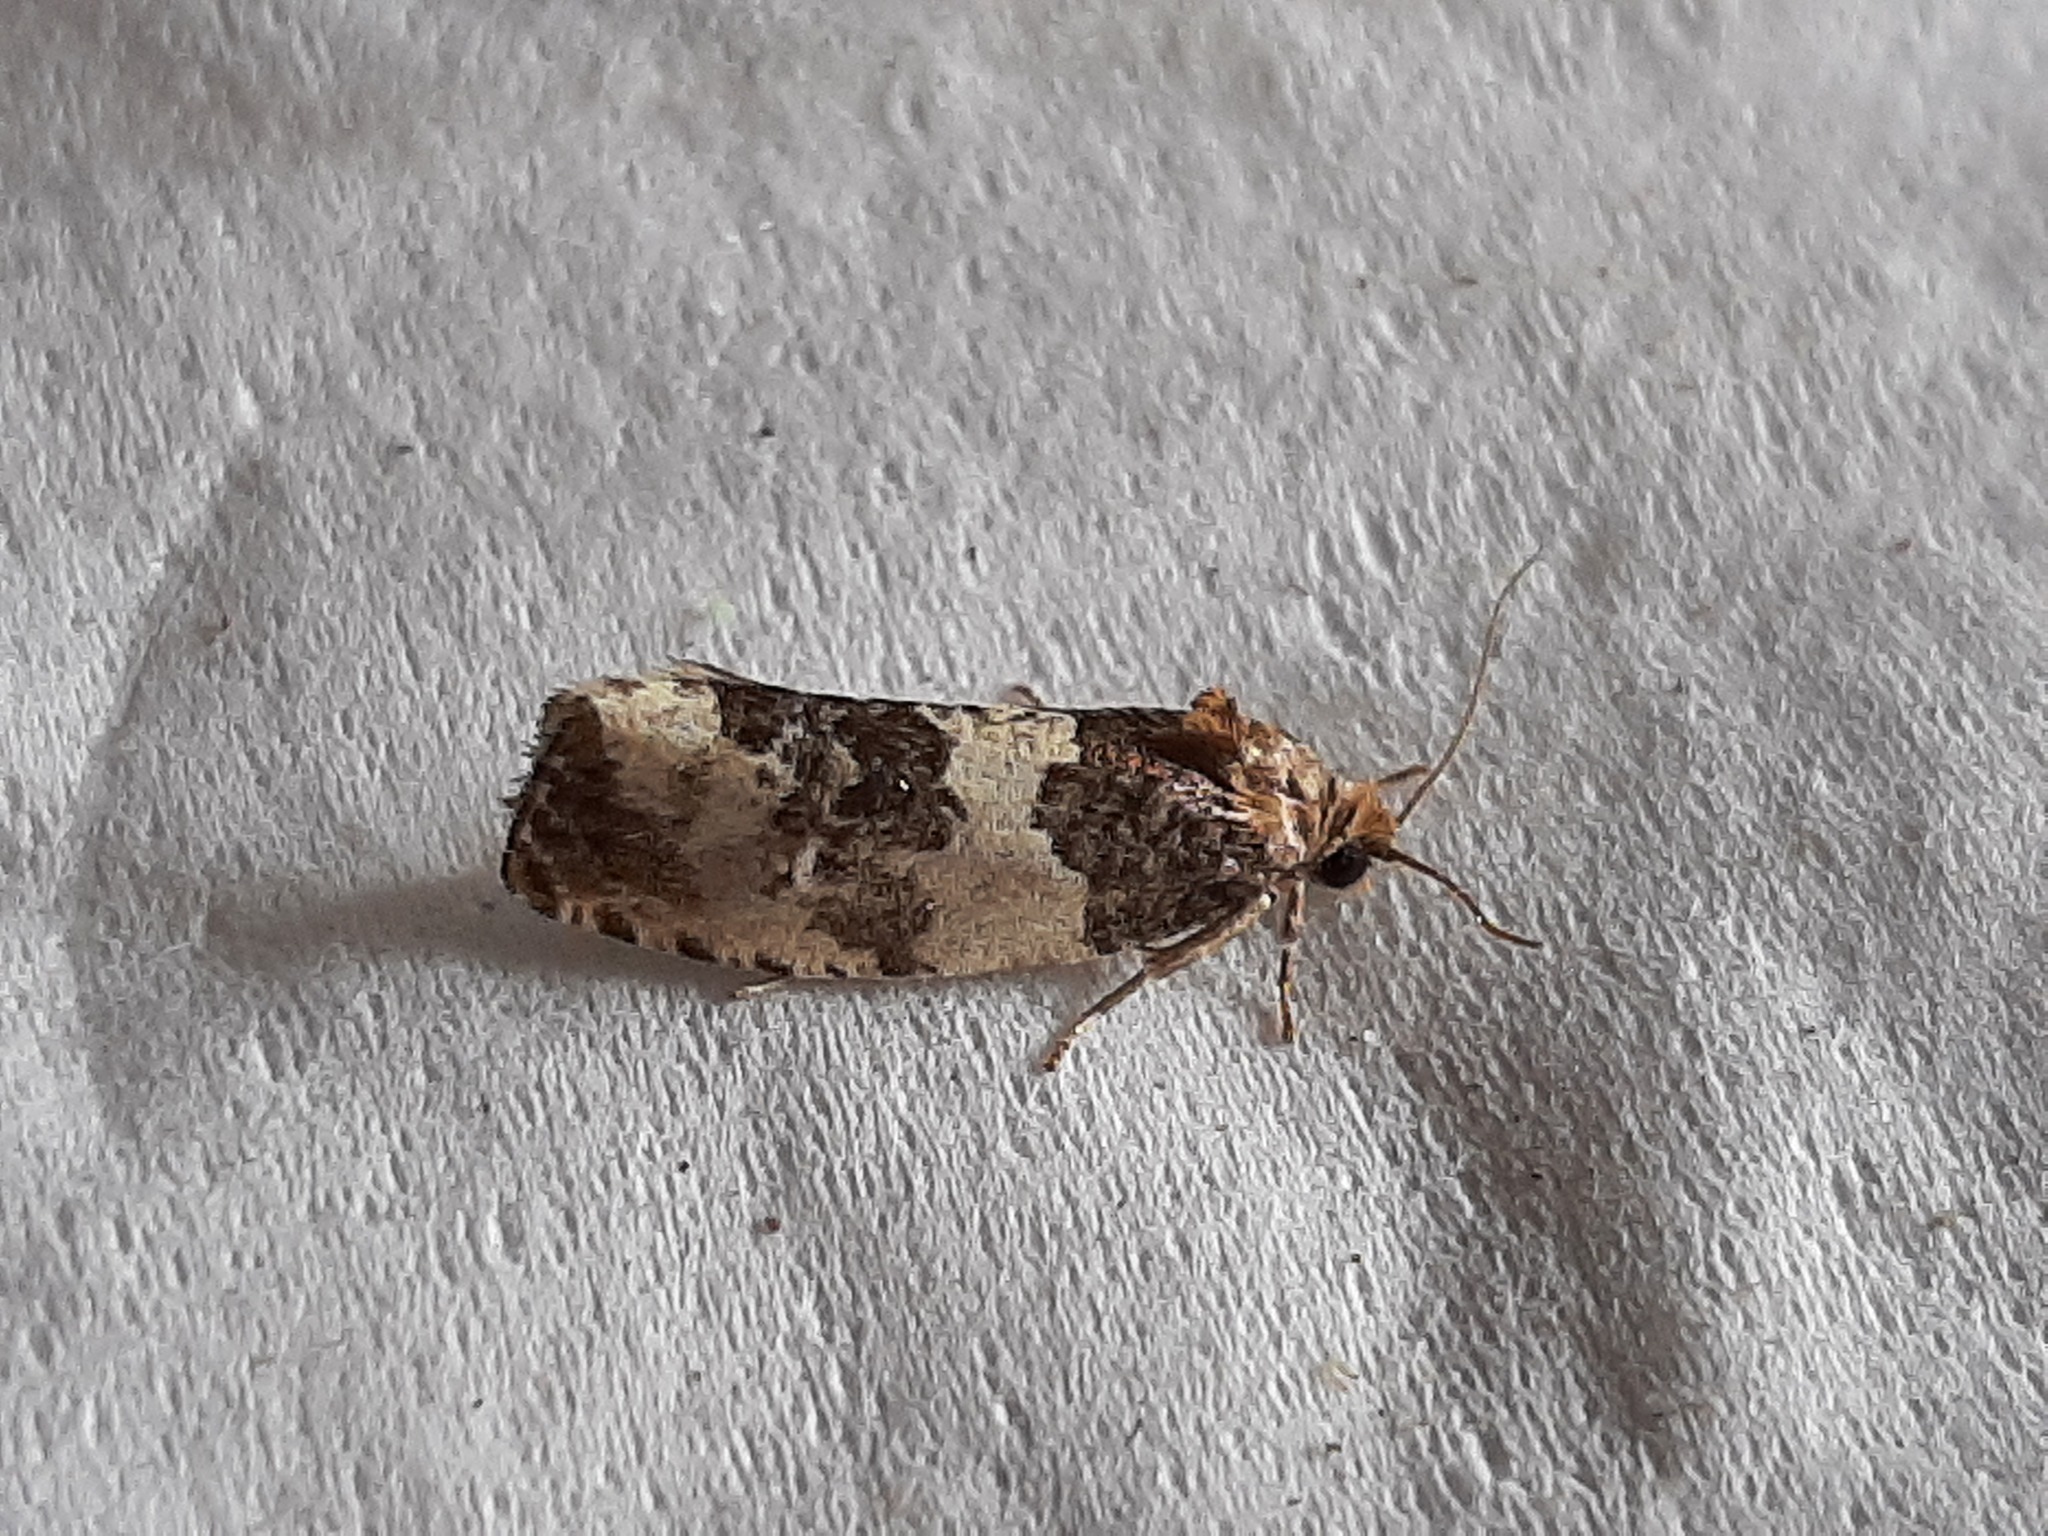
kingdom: Animalia
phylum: Arthropoda
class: Insecta
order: Lepidoptera
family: Tortricidae
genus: Pseudosciaphila
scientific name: Pseudosciaphila duplex
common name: Poplar leafroller moth
